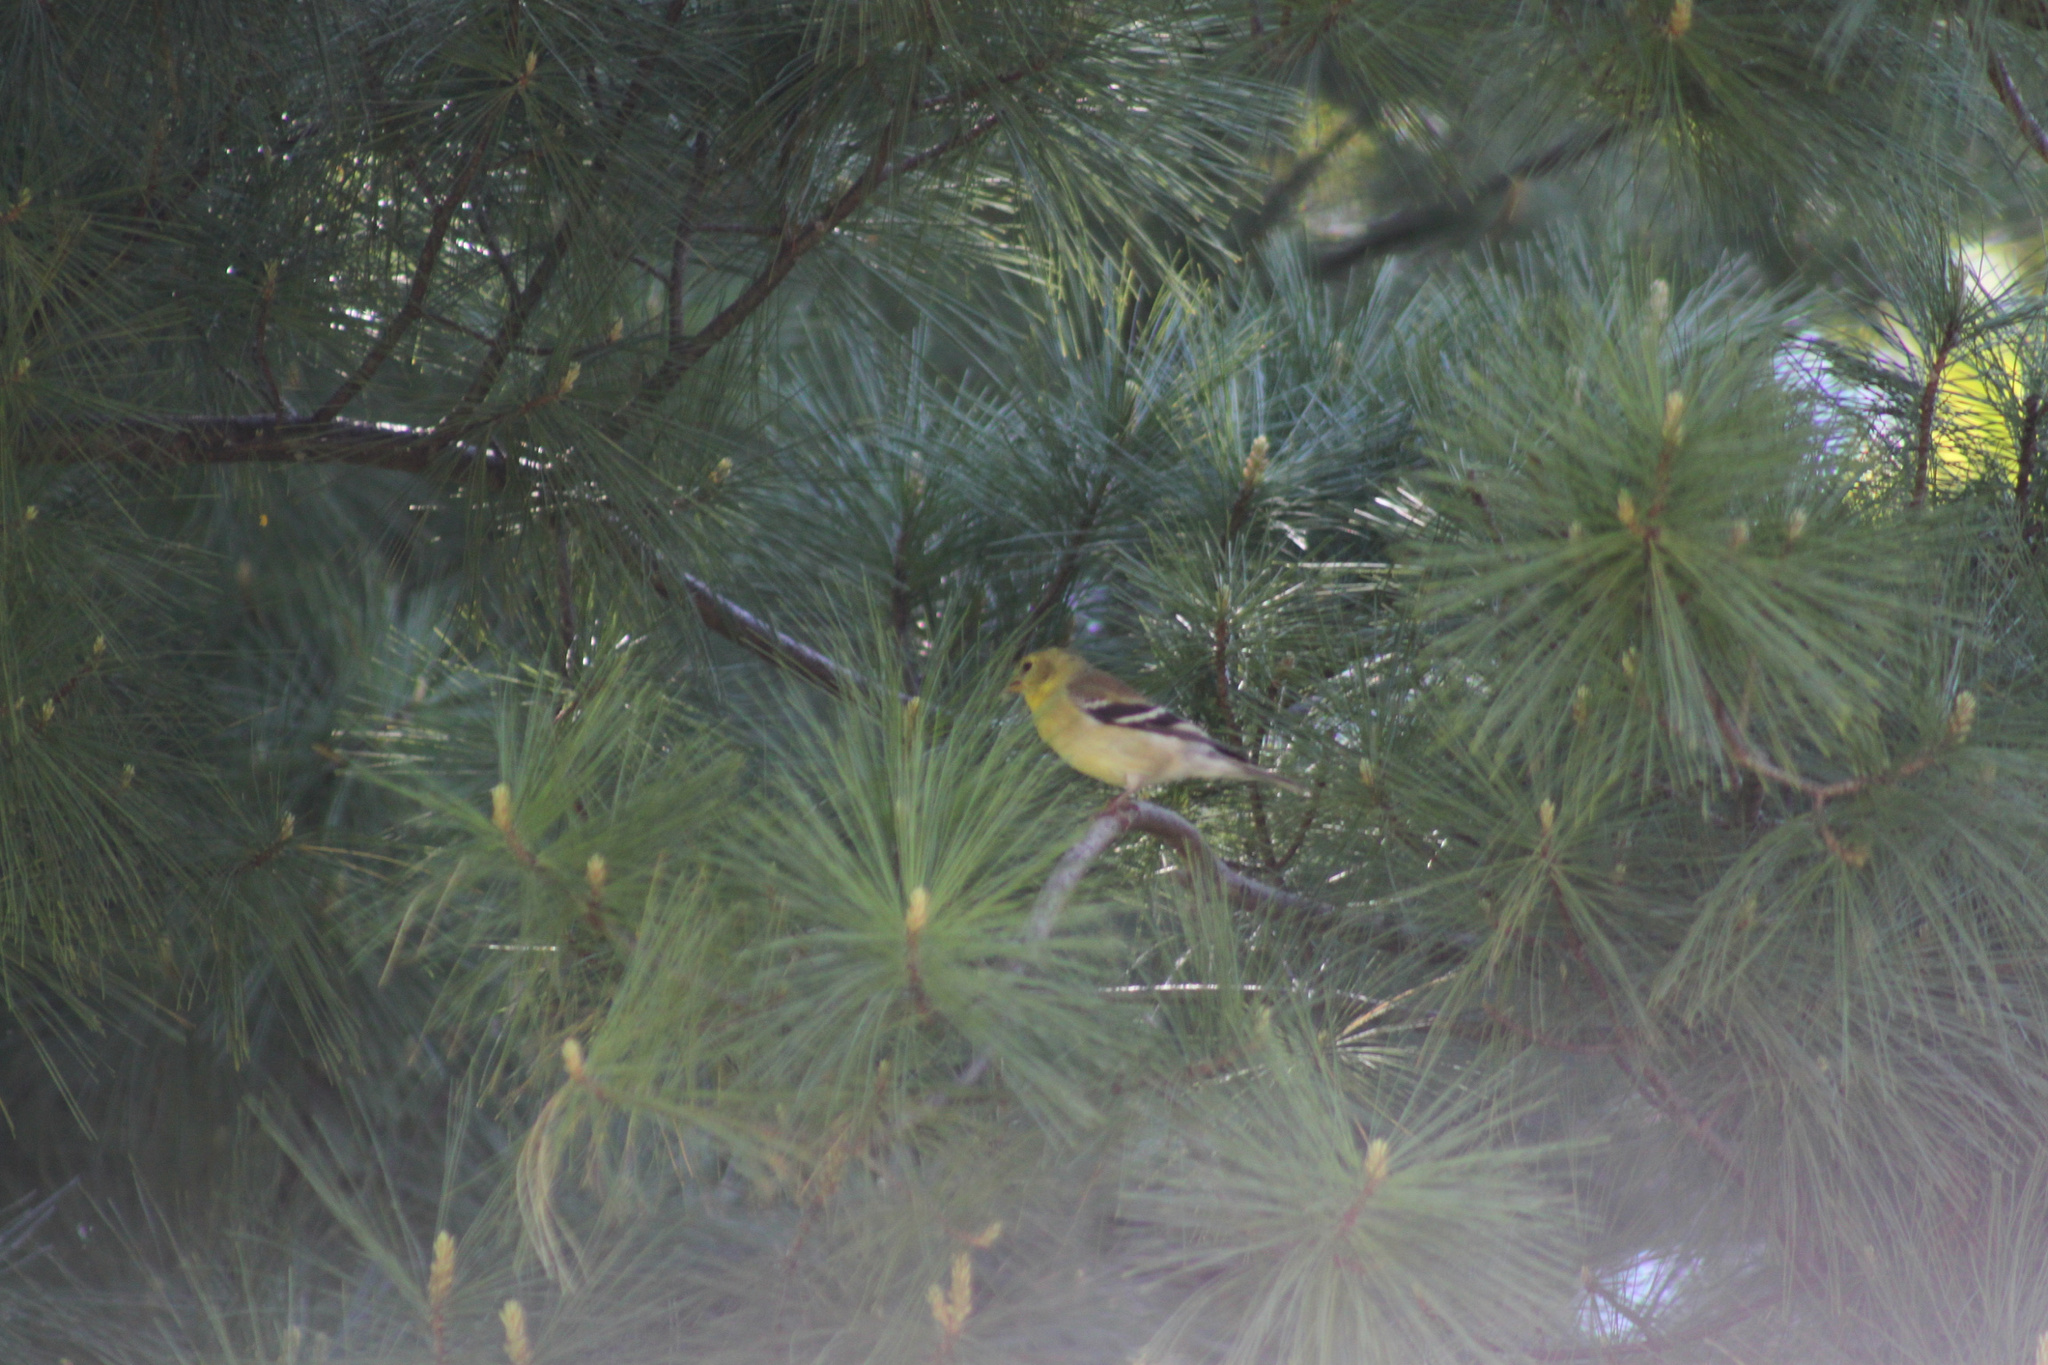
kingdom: Animalia
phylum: Chordata
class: Aves
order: Passeriformes
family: Fringillidae
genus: Spinus
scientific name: Spinus tristis
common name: American goldfinch
